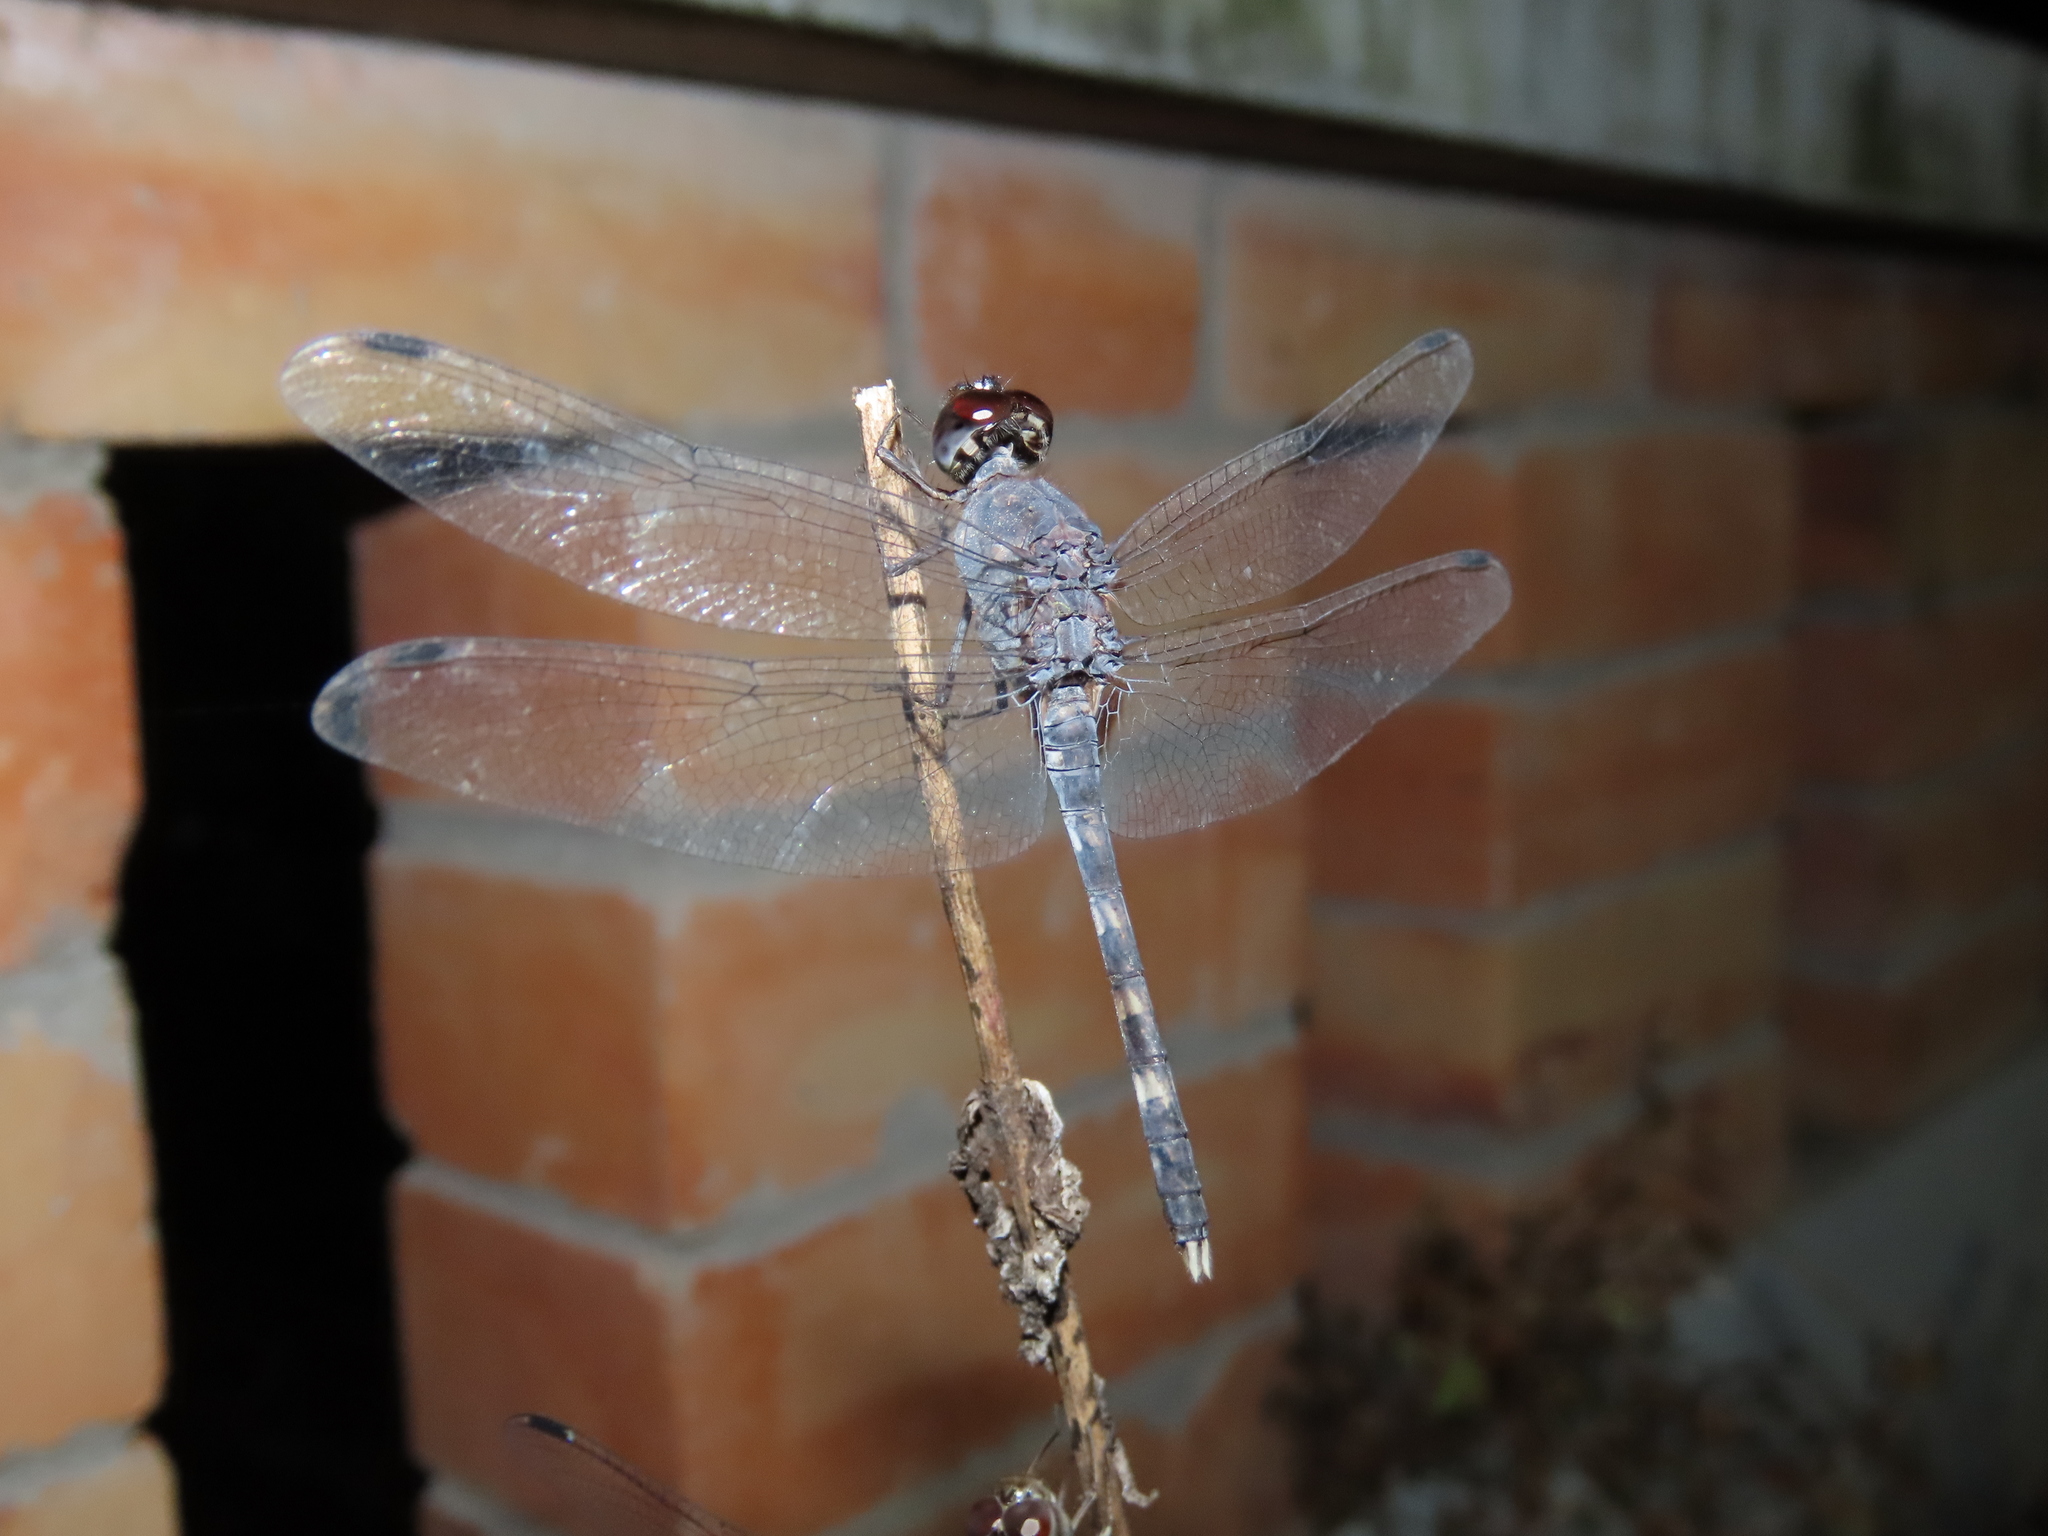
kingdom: Animalia
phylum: Arthropoda
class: Insecta
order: Odonata
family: Libellulidae
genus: Bradinopyga
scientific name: Bradinopyga geminata
